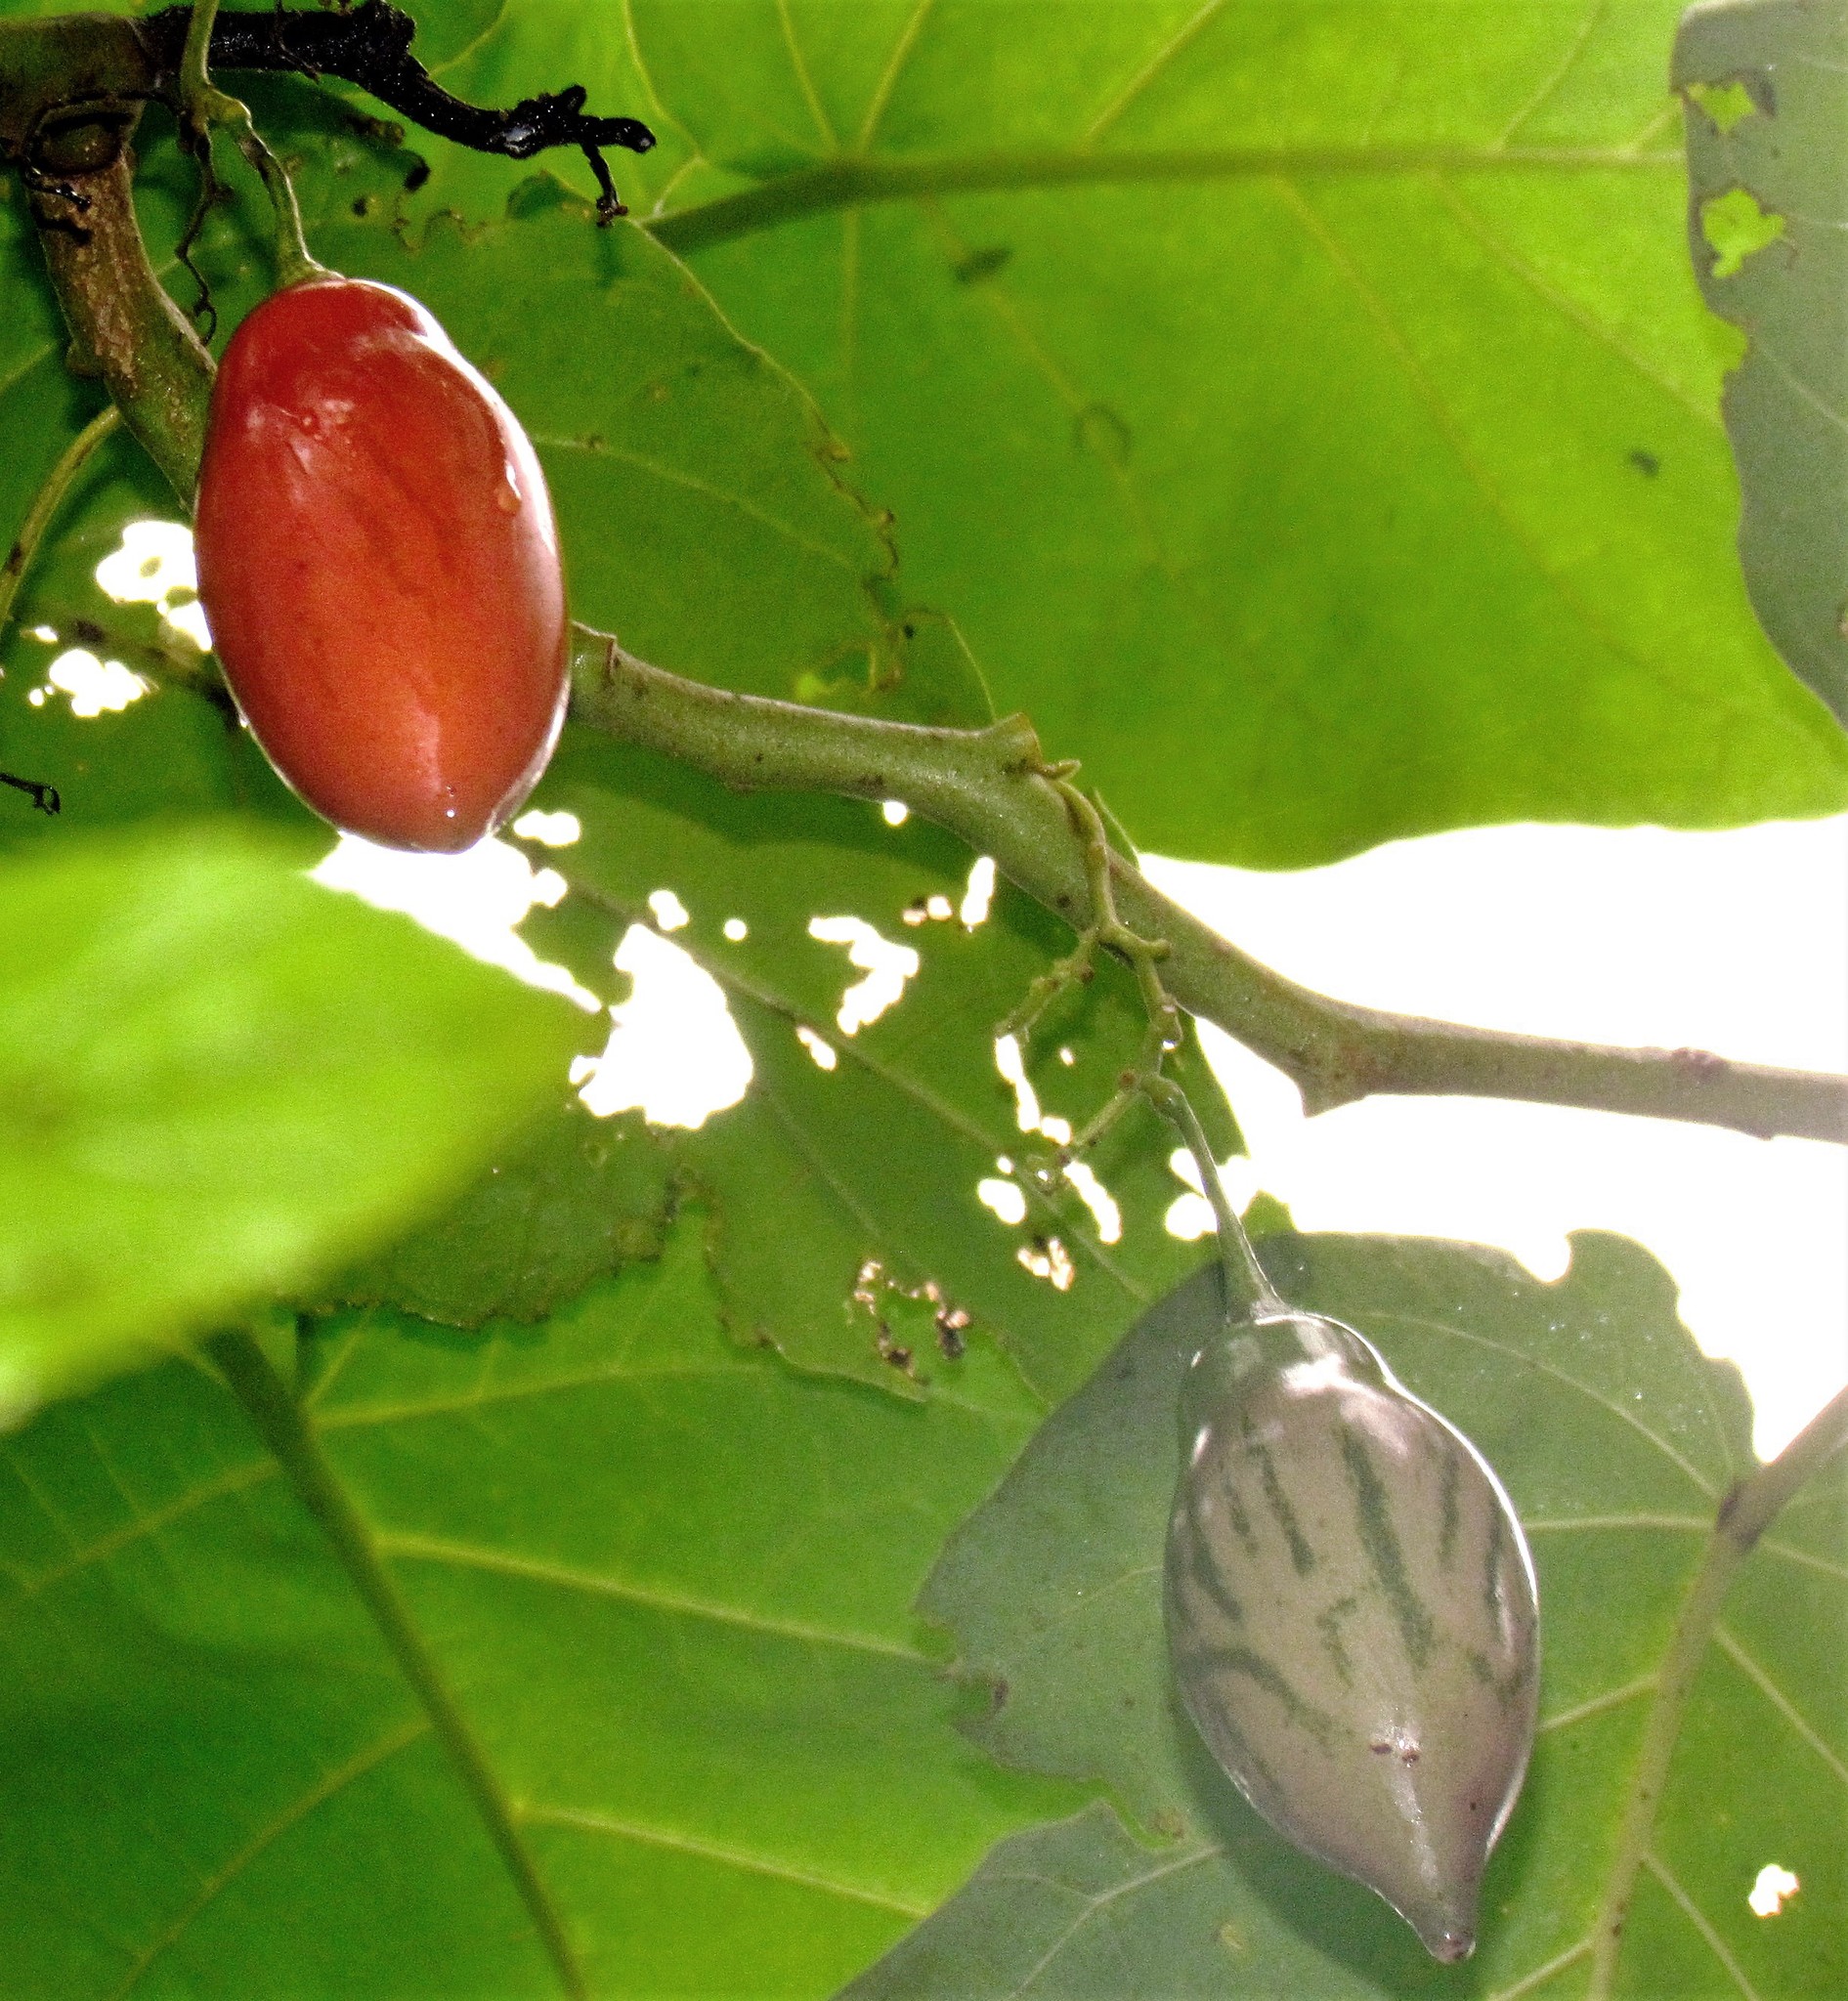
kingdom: Plantae
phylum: Tracheophyta
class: Magnoliopsida
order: Solanales
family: Solanaceae
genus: Solanum
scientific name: Solanum betaceum
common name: Tamarillo
